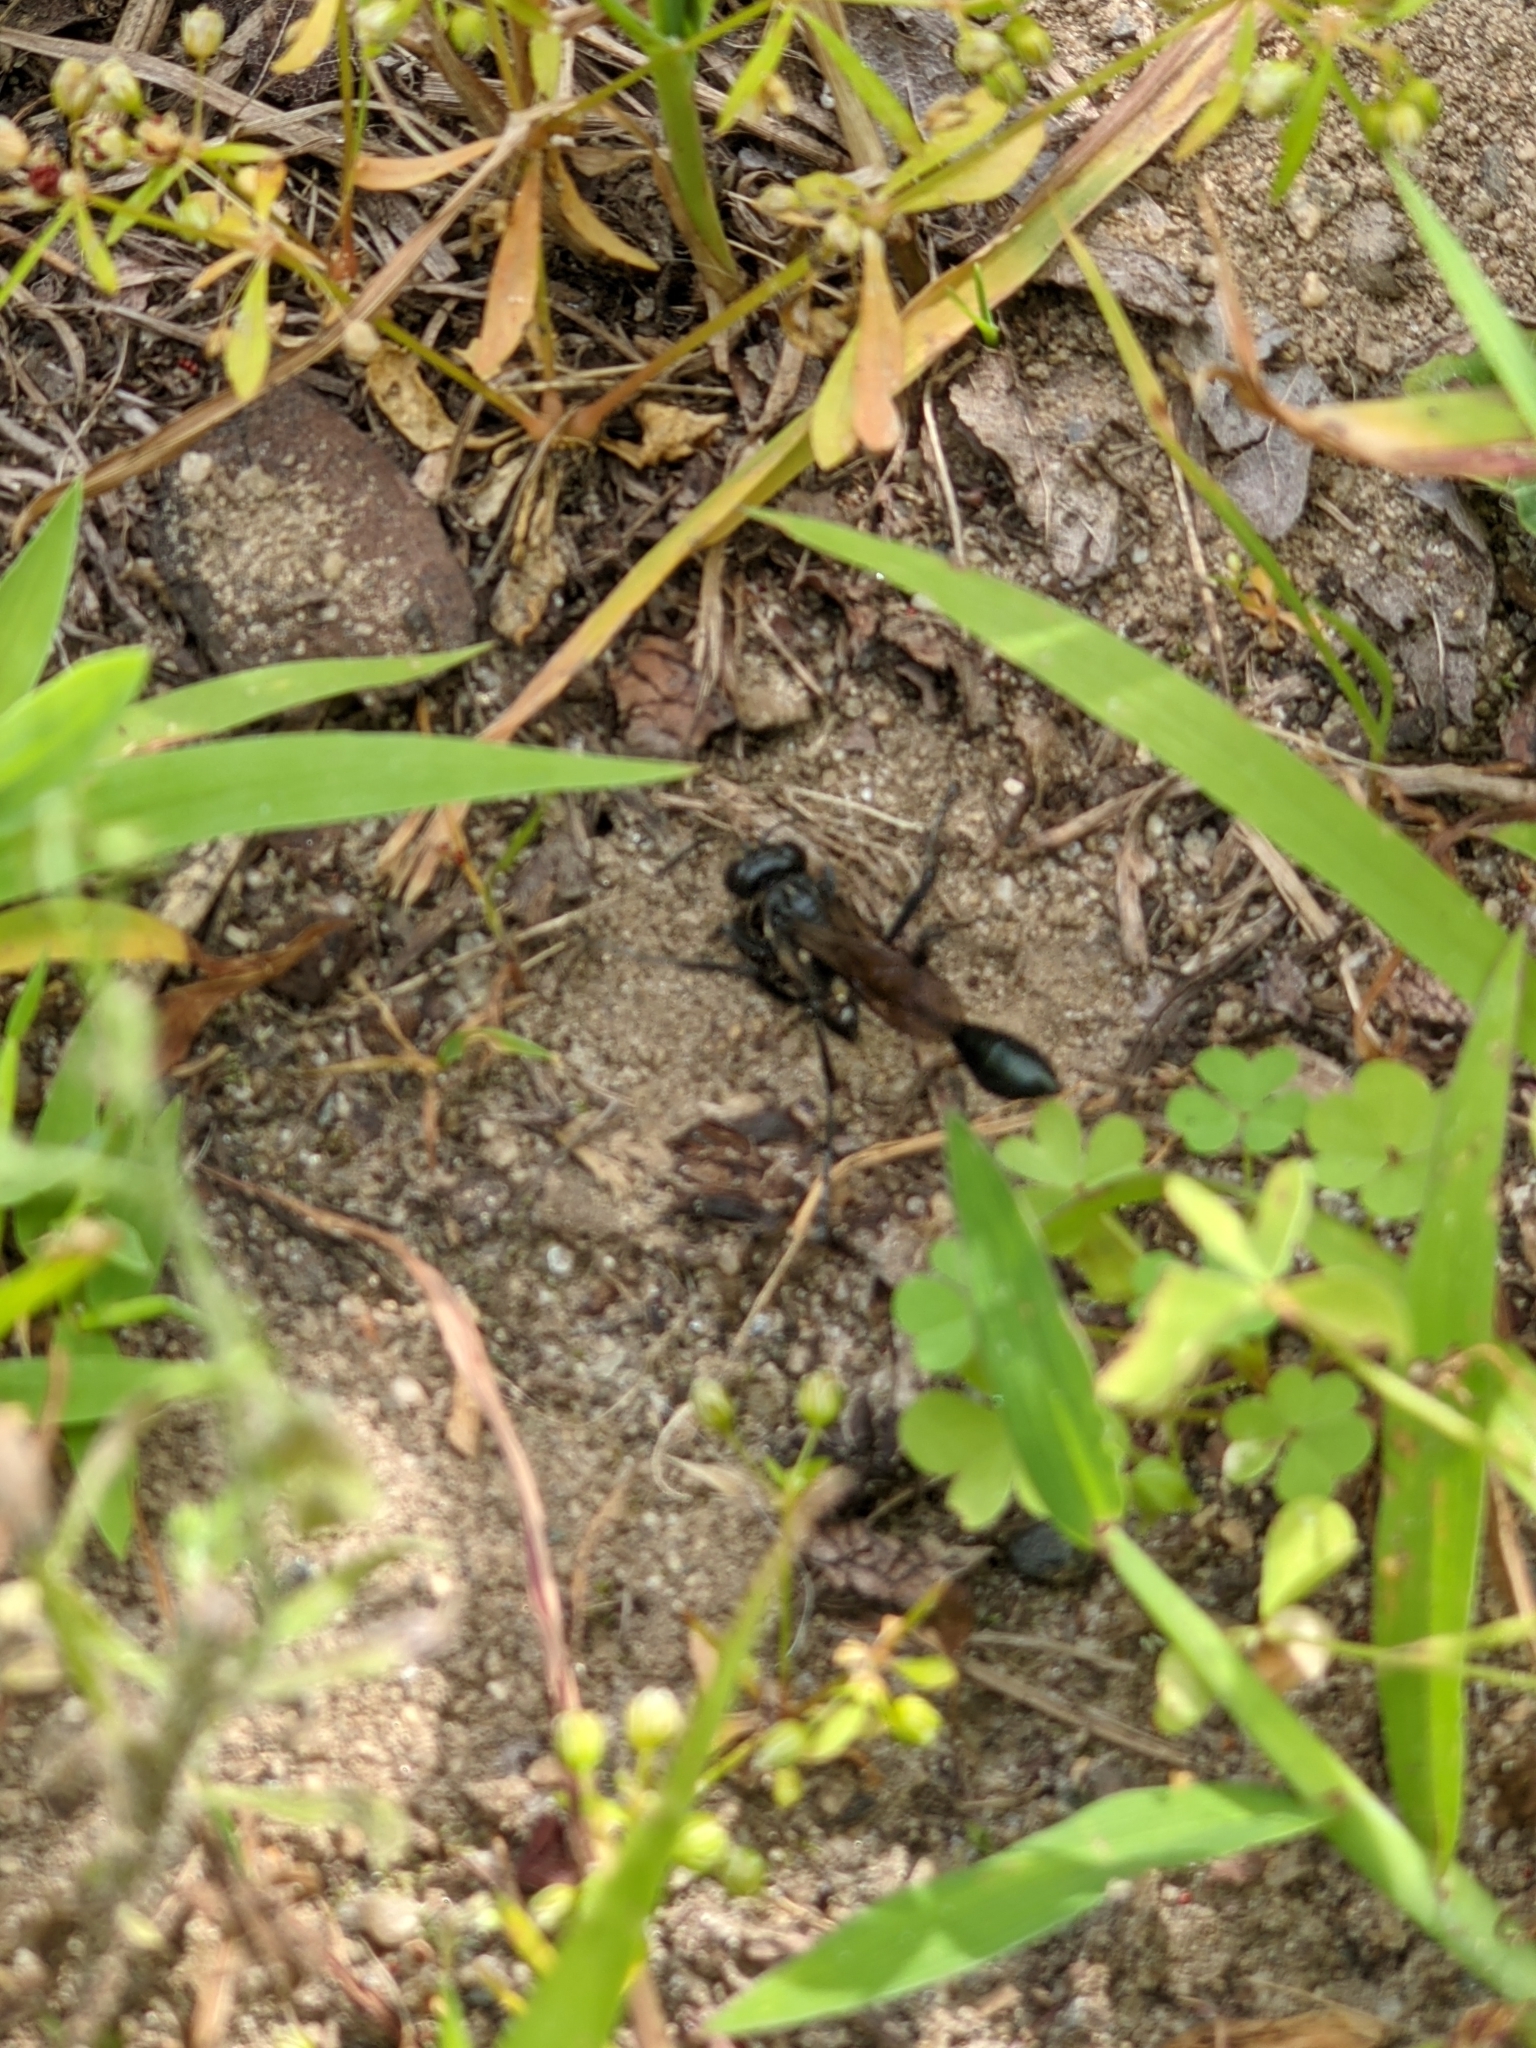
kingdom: Animalia
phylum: Arthropoda
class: Insecta
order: Hymenoptera
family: Sphecidae
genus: Eremnophila
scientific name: Eremnophila aureonotata
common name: Gold-marked thread-waisted wasp
